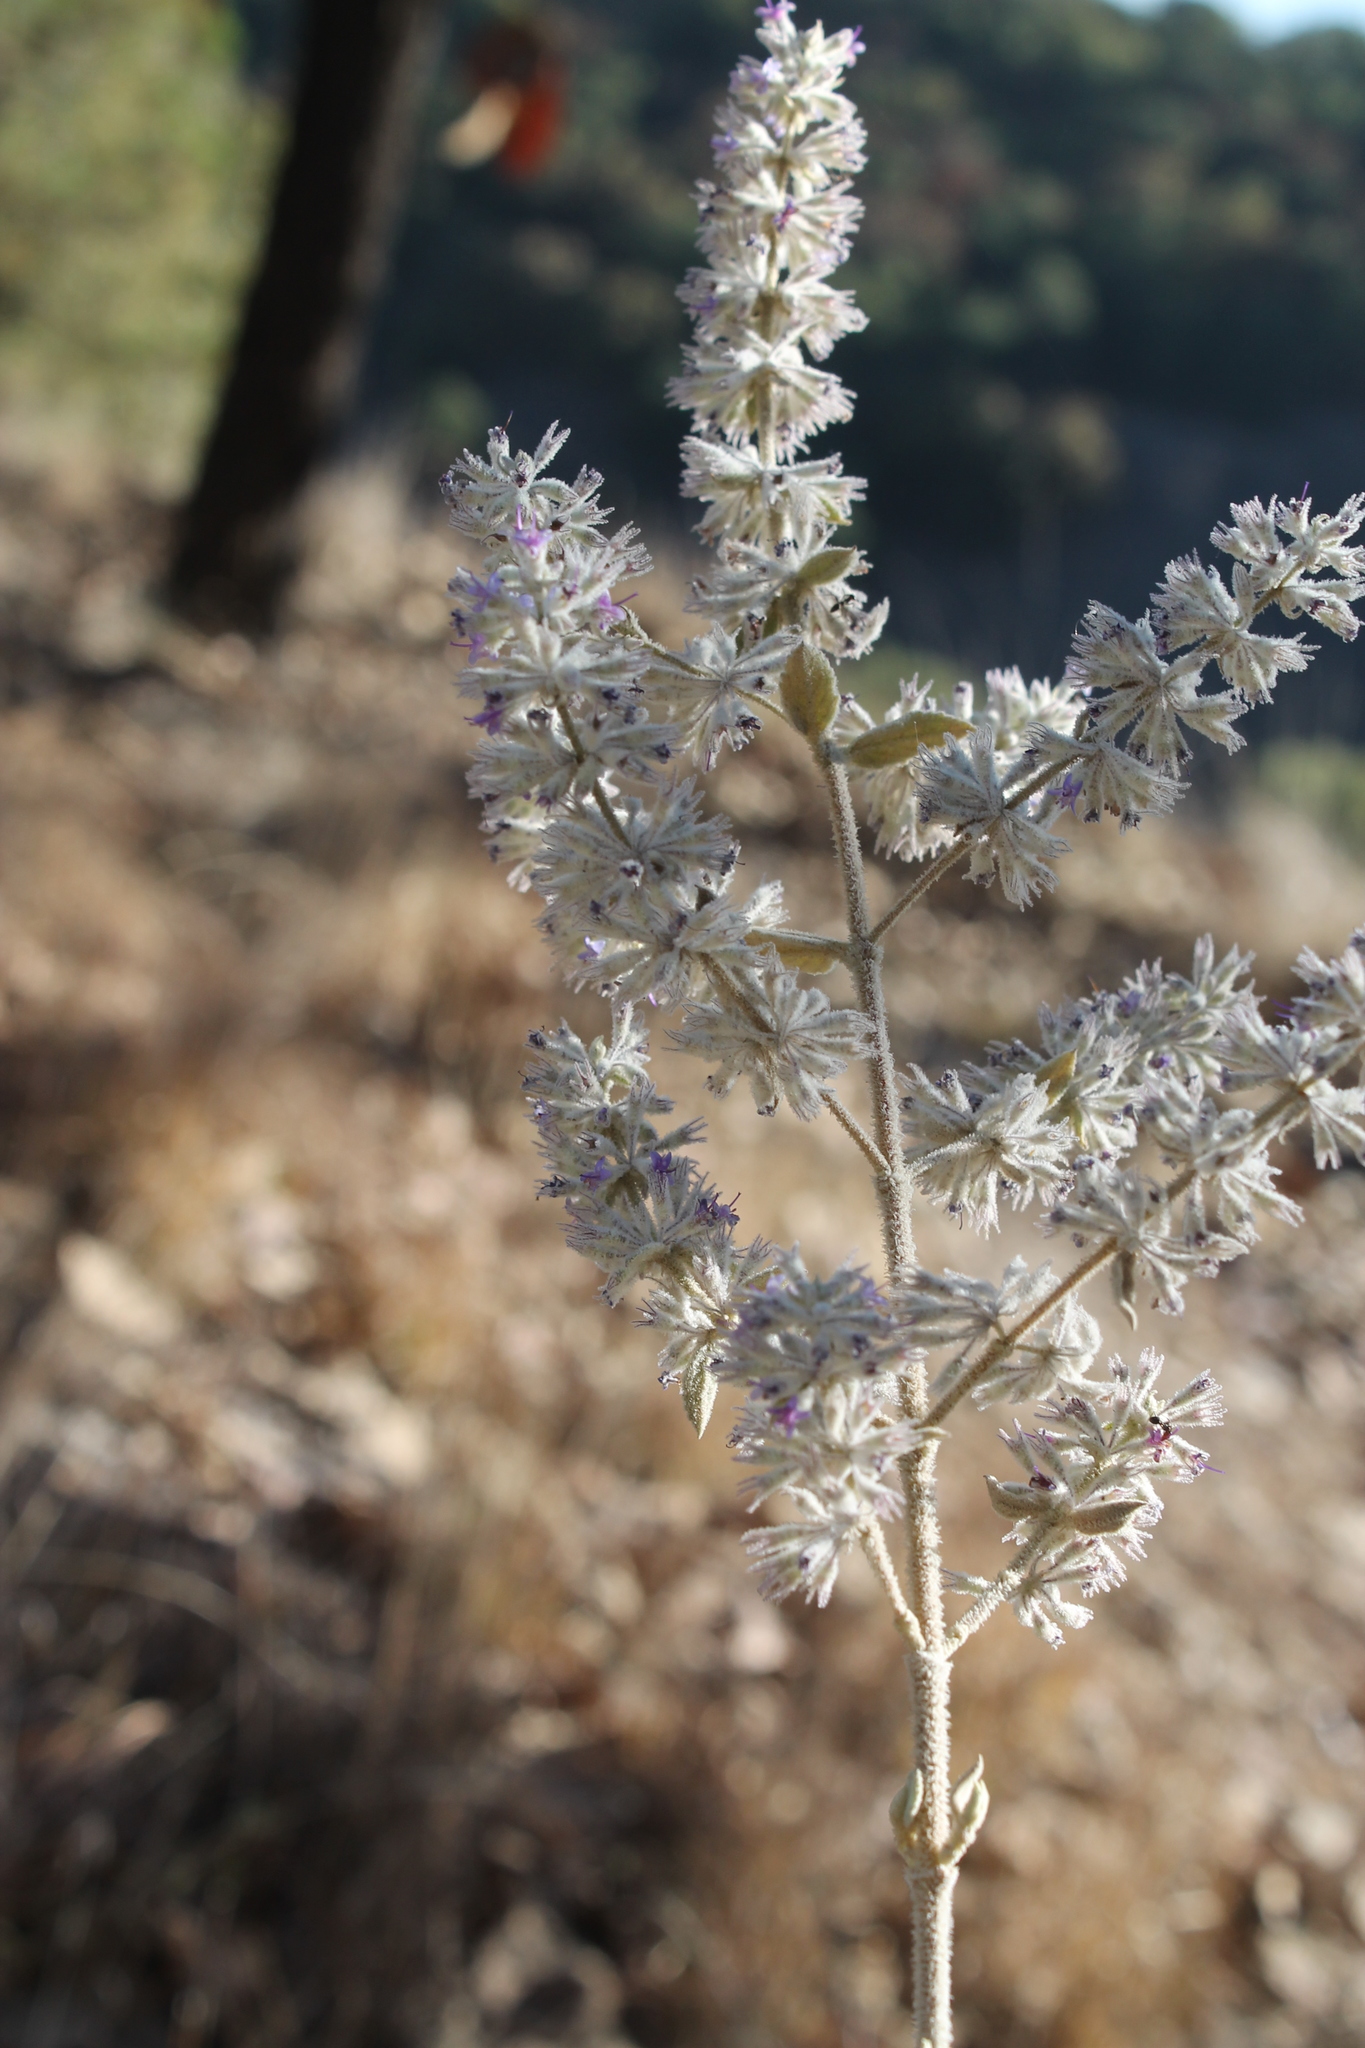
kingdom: Plantae
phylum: Tracheophyta
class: Magnoliopsida
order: Lamiales
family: Lamiaceae
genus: Condea
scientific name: Condea albida
